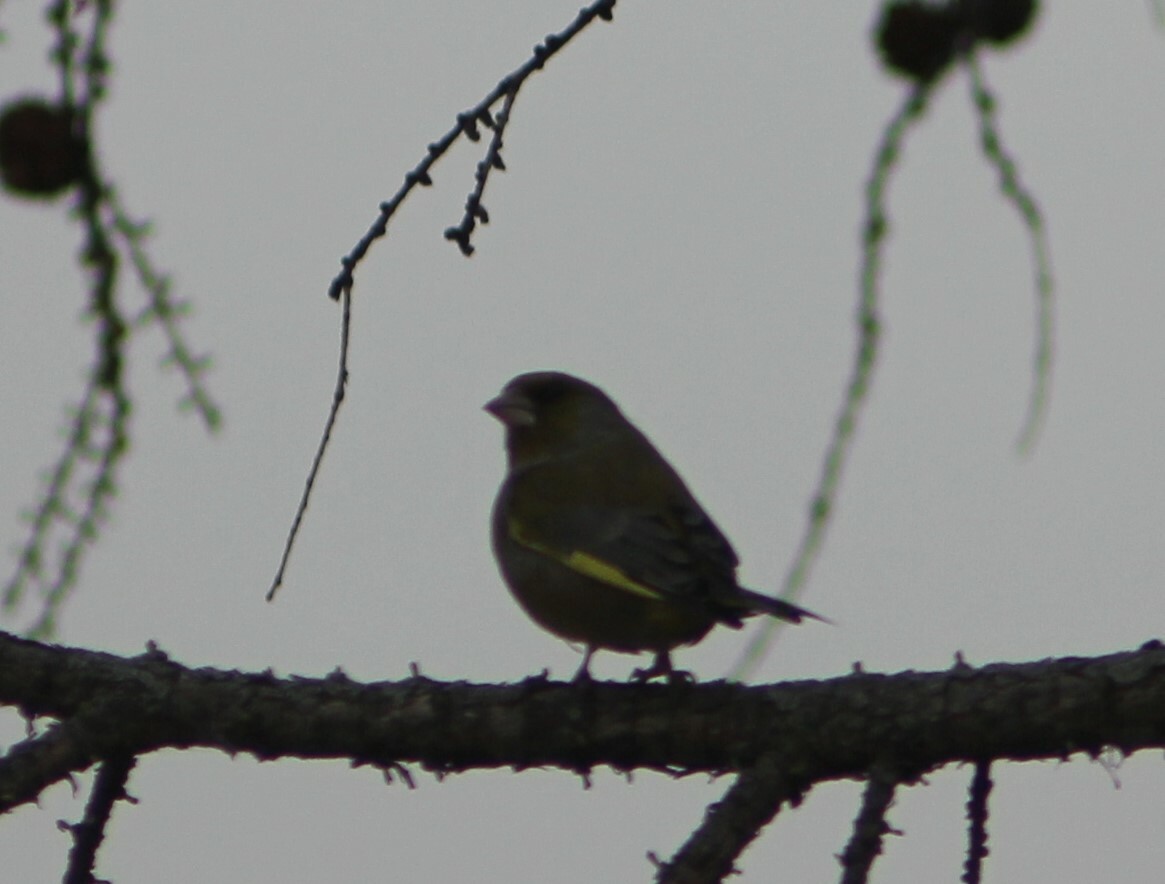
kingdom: Plantae
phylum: Tracheophyta
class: Liliopsida
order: Poales
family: Poaceae
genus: Chloris
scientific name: Chloris chloris
